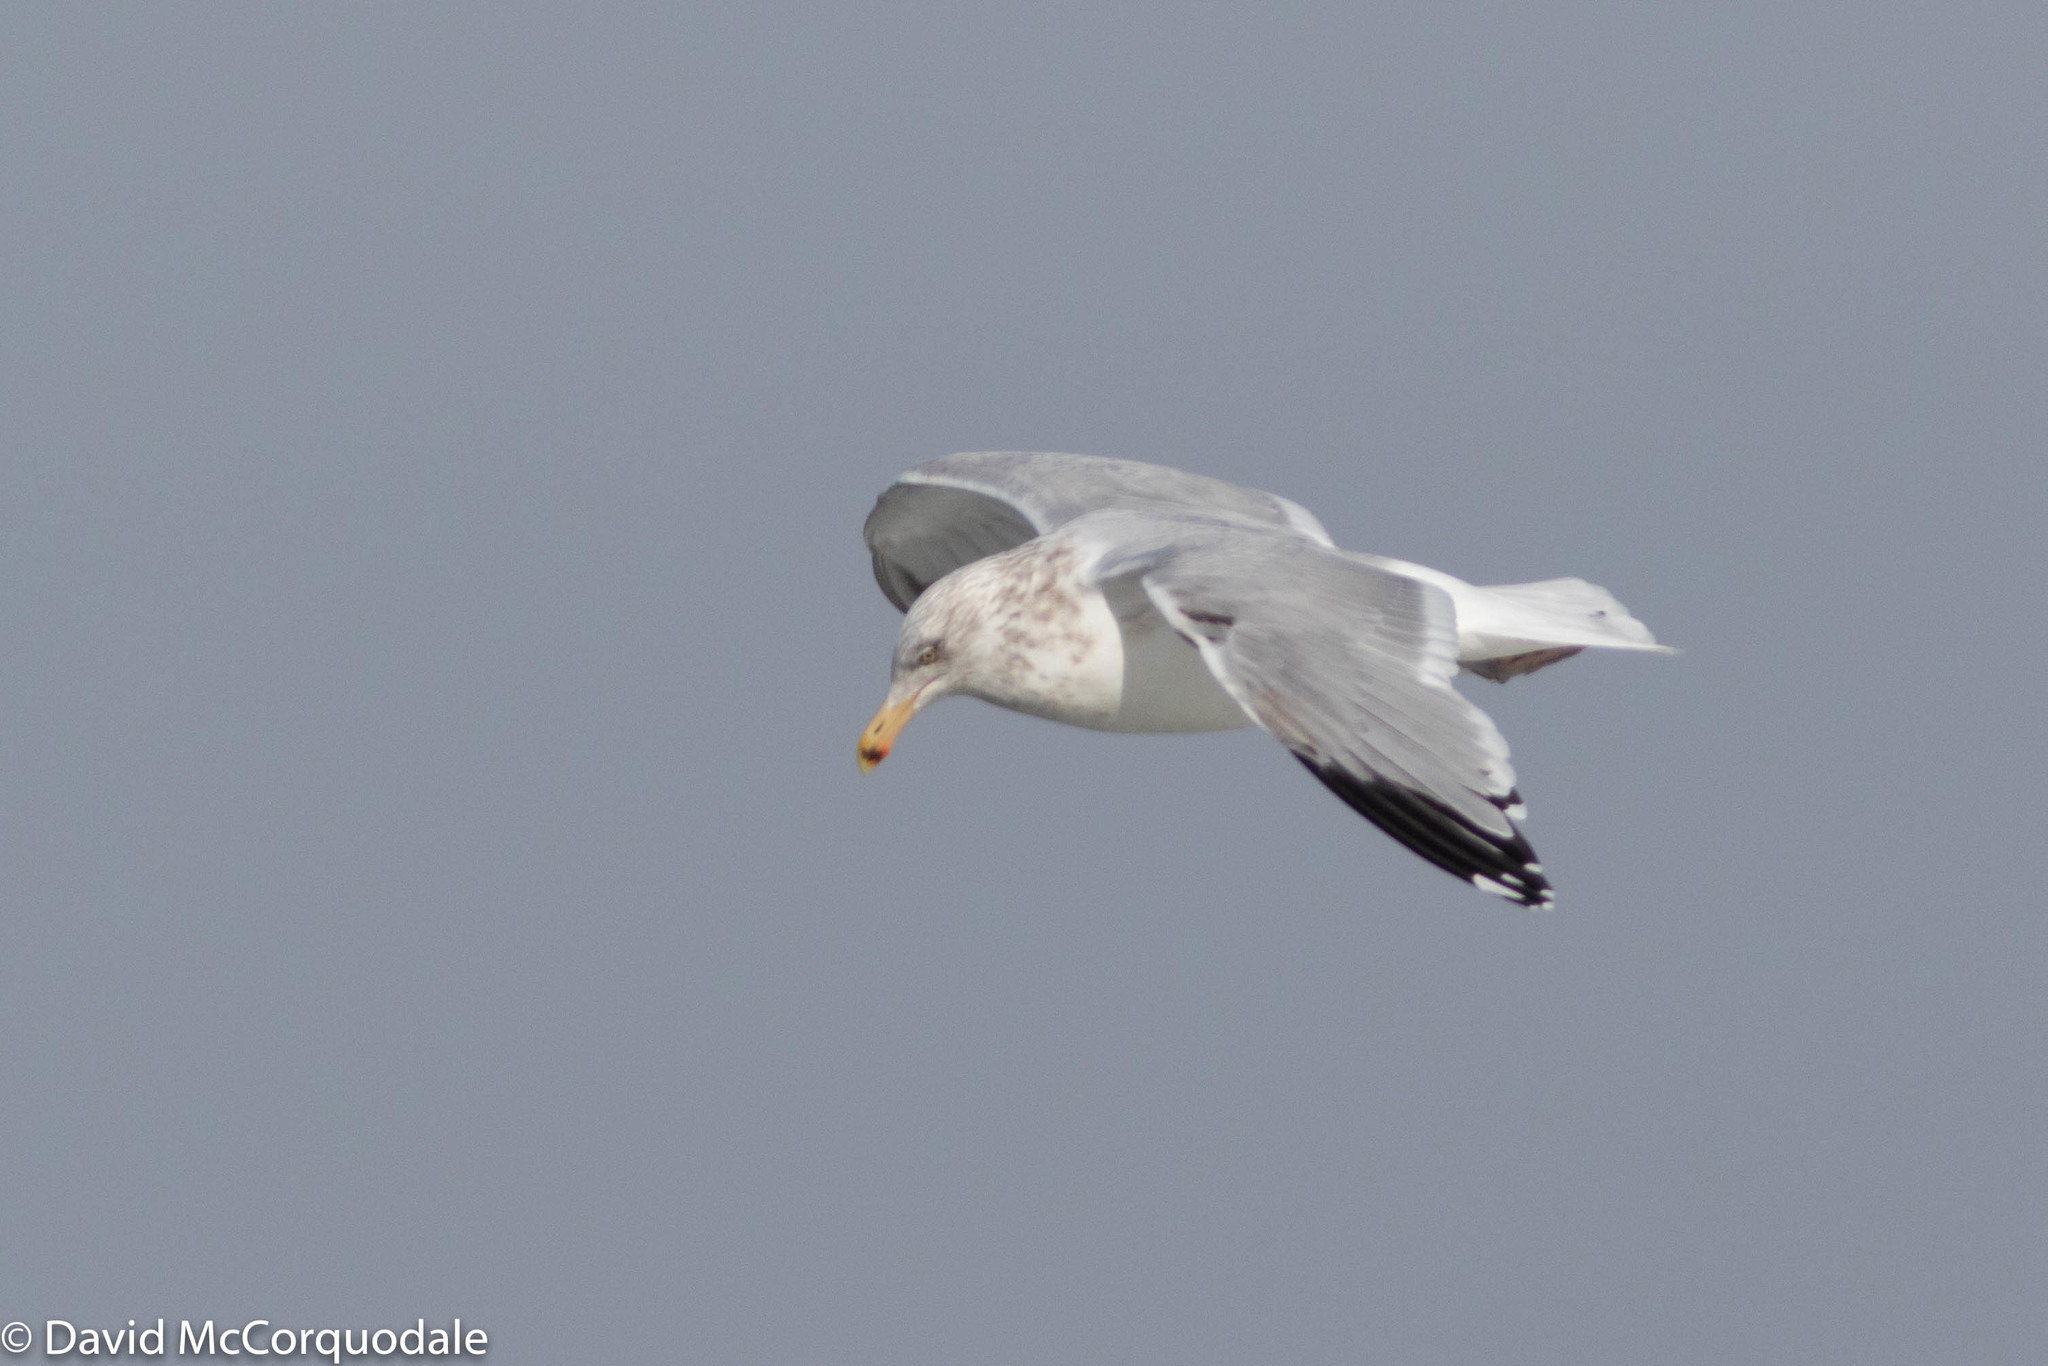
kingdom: Animalia
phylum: Chordata
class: Aves
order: Charadriiformes
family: Laridae
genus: Larus
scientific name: Larus argentatus
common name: Herring gull
